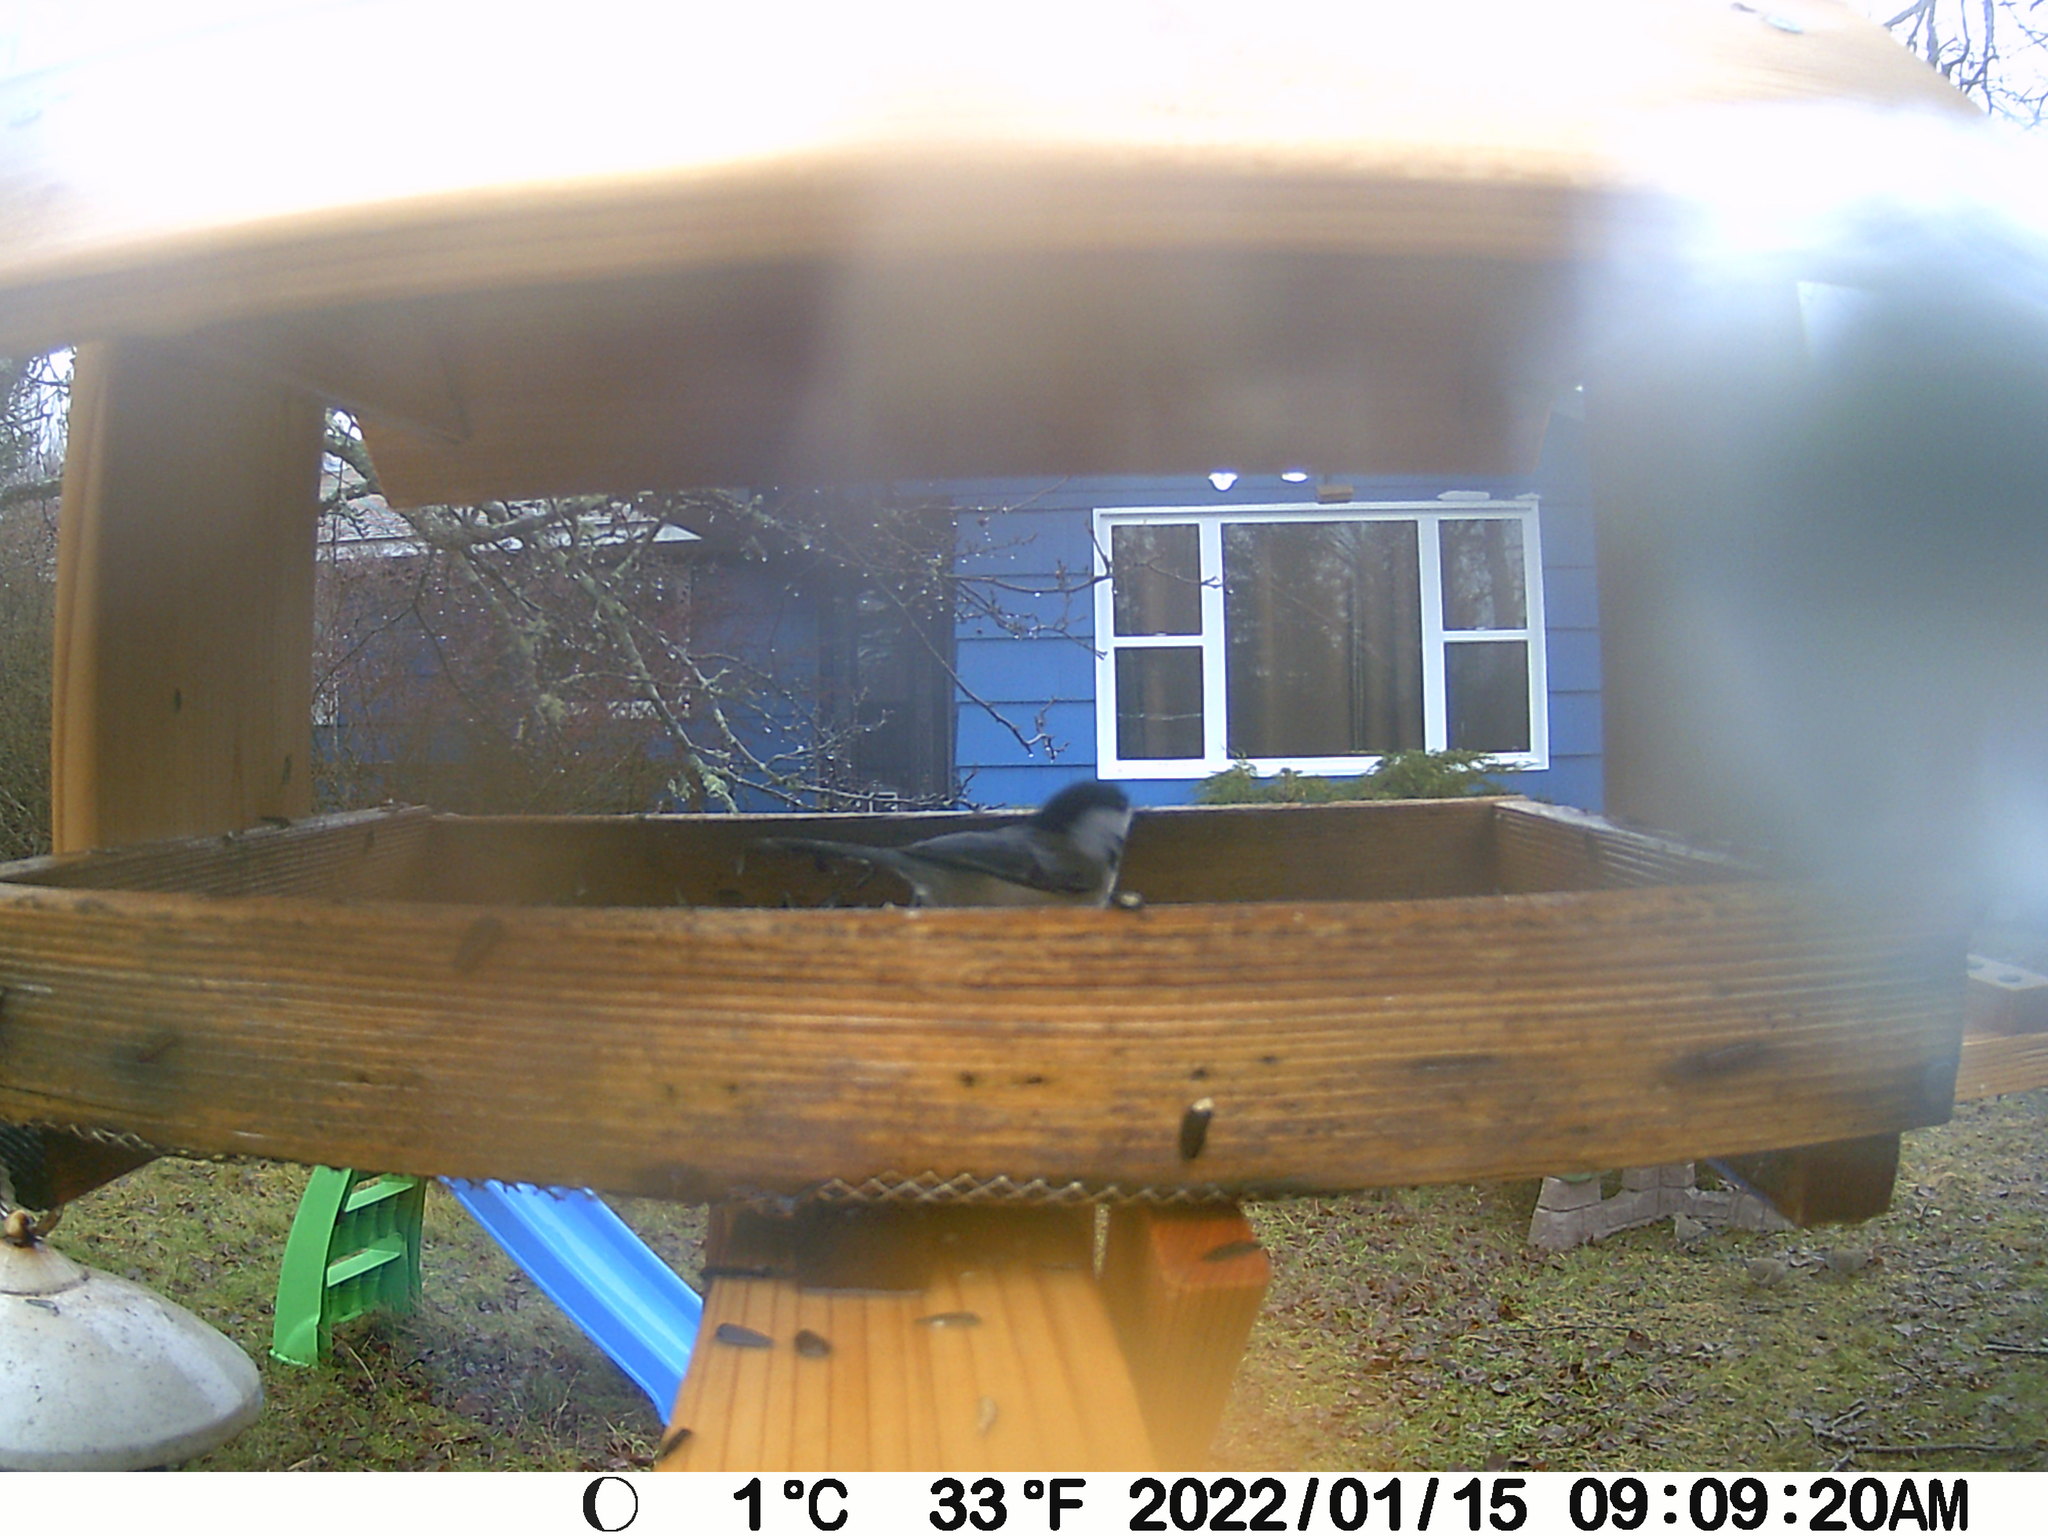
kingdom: Animalia
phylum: Chordata
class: Aves
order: Columbiformes
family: Columbidae
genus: Zenaida
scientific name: Zenaida macroura
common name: Mourning dove
